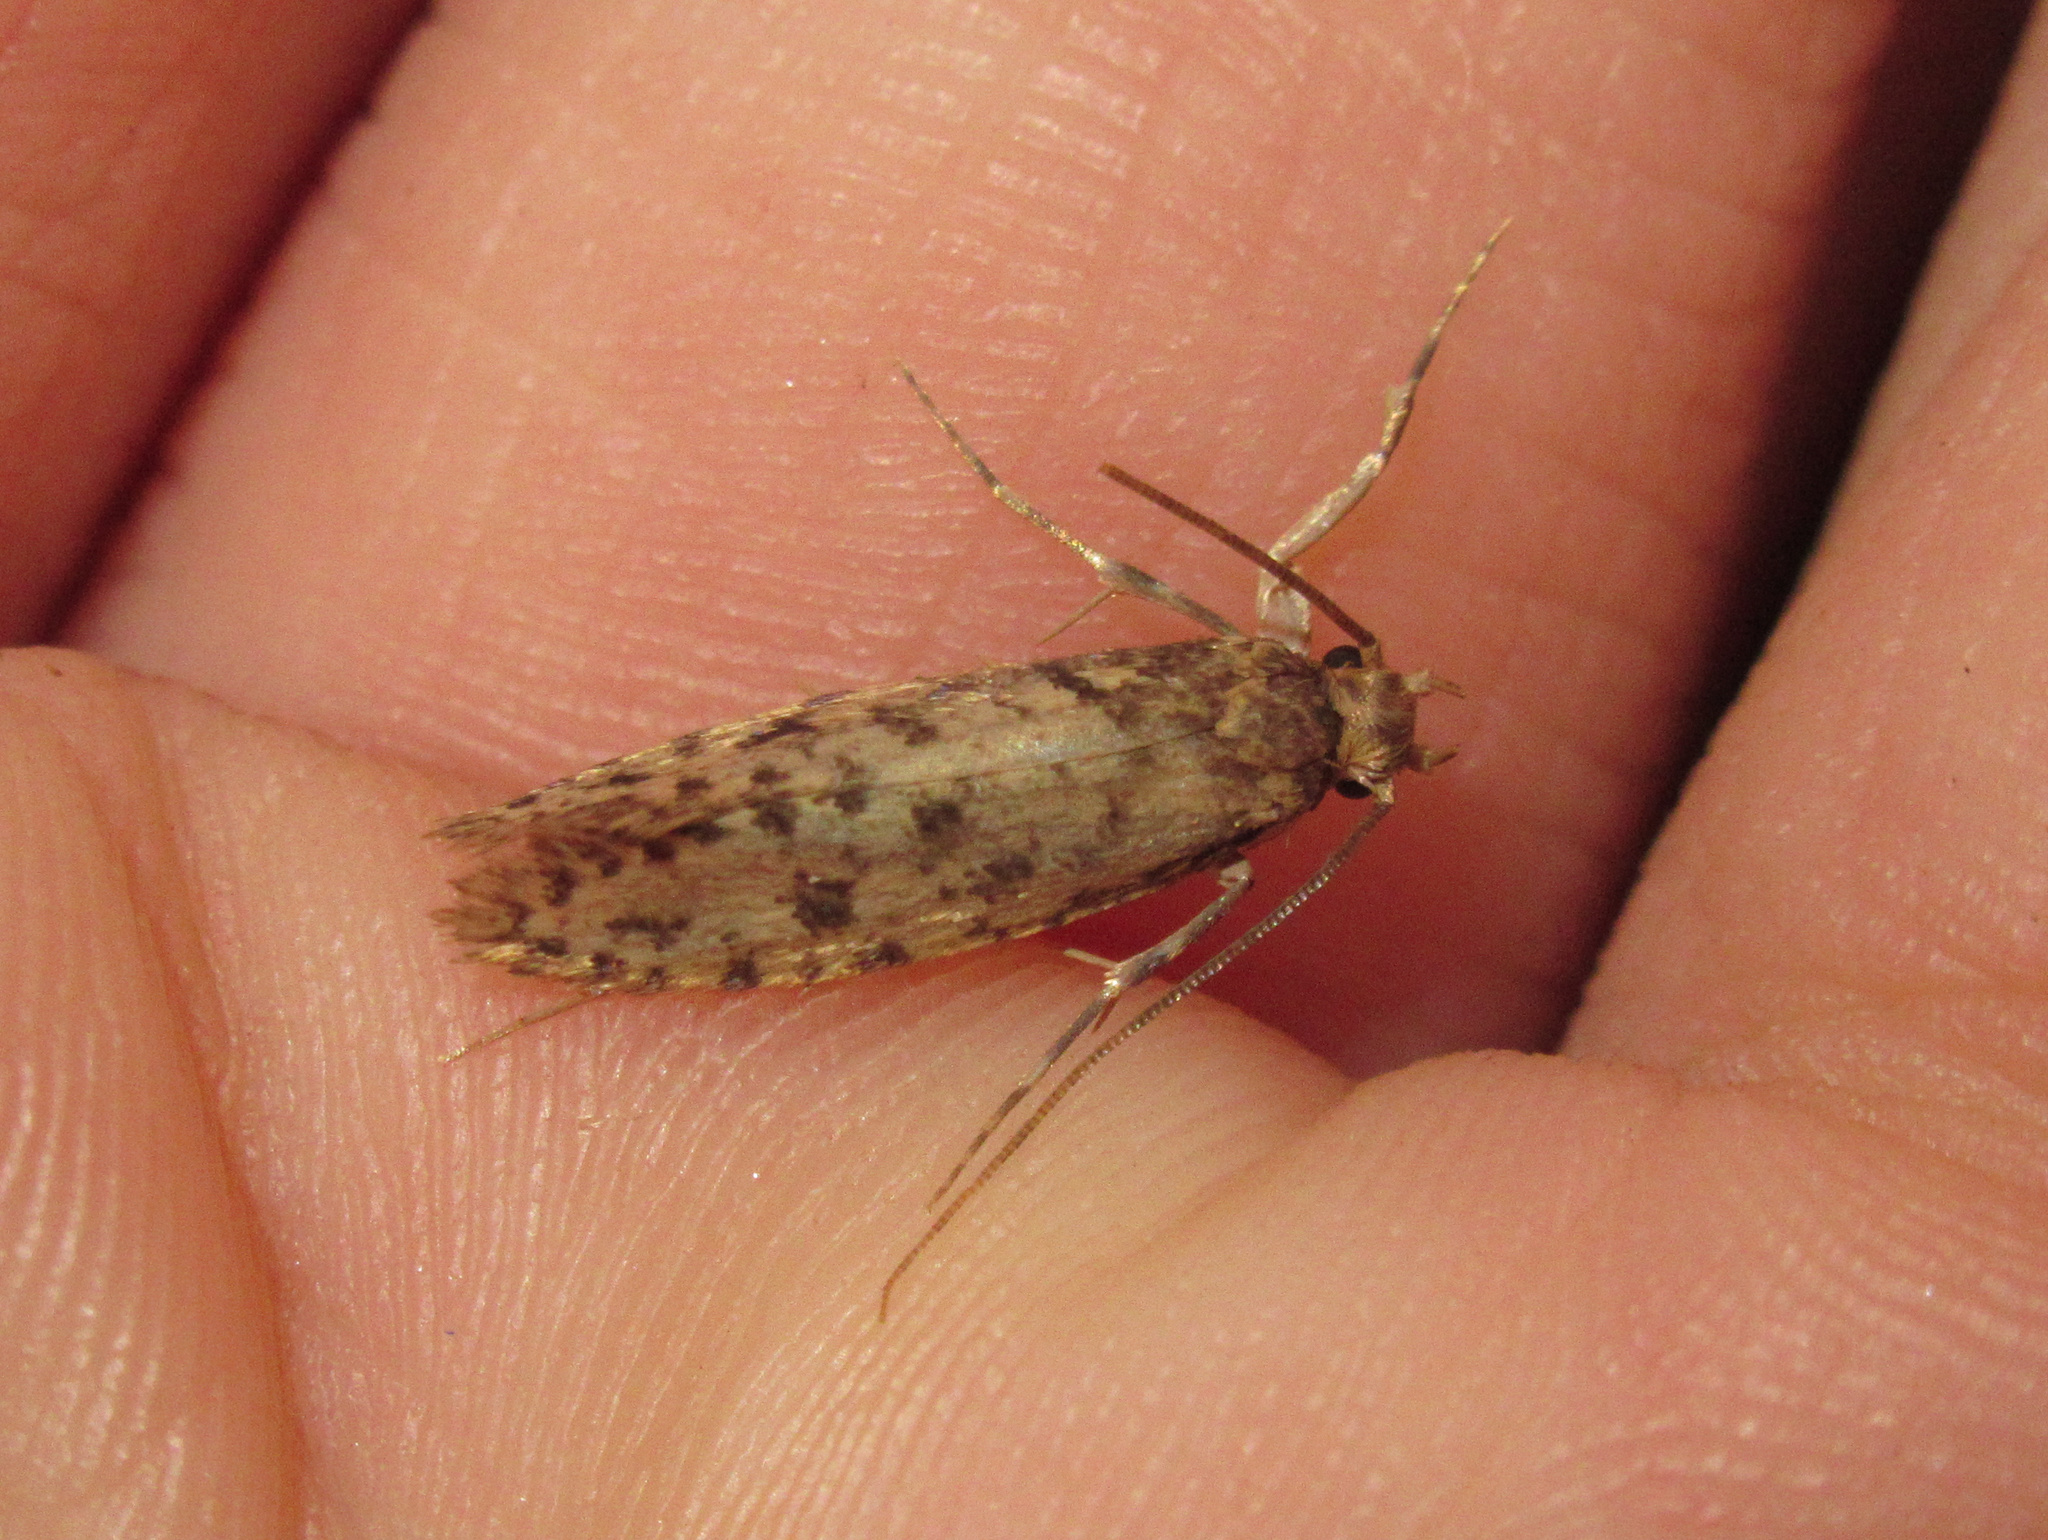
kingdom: Animalia
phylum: Arthropoda
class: Insecta
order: Lepidoptera
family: Tineidae
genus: Lindera
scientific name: Lindera tessellatella
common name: Moth
